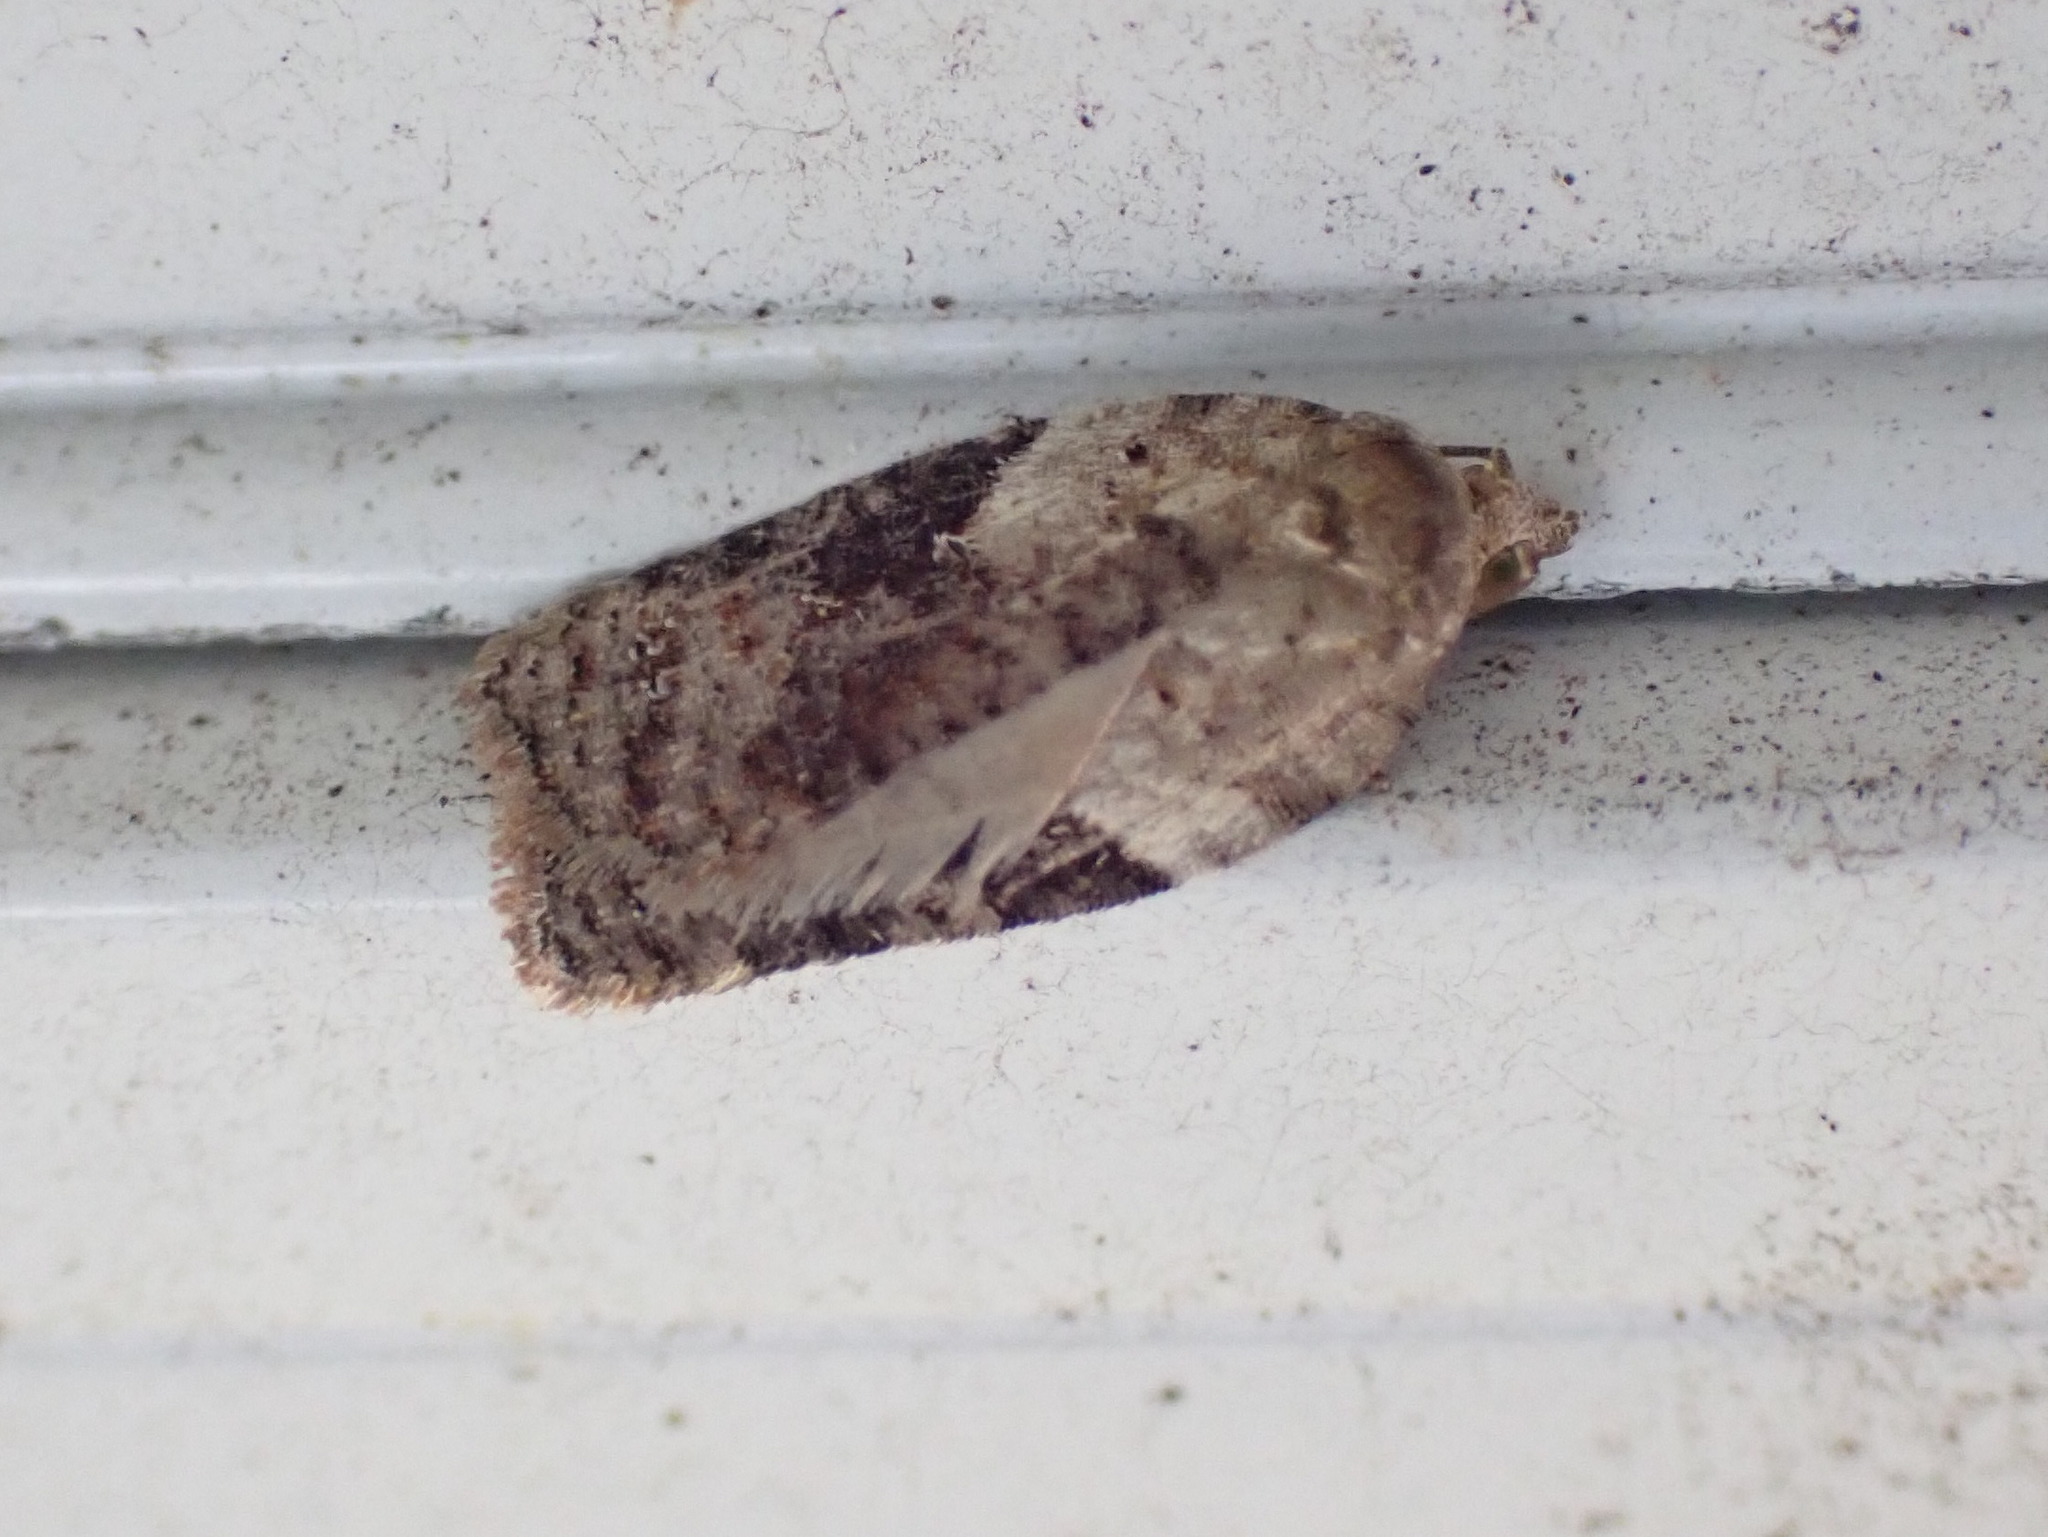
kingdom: Animalia
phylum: Arthropoda
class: Insecta
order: Lepidoptera
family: Tortricidae
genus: Acleris
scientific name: Acleris forbesana
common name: Forbes' acleris moth
